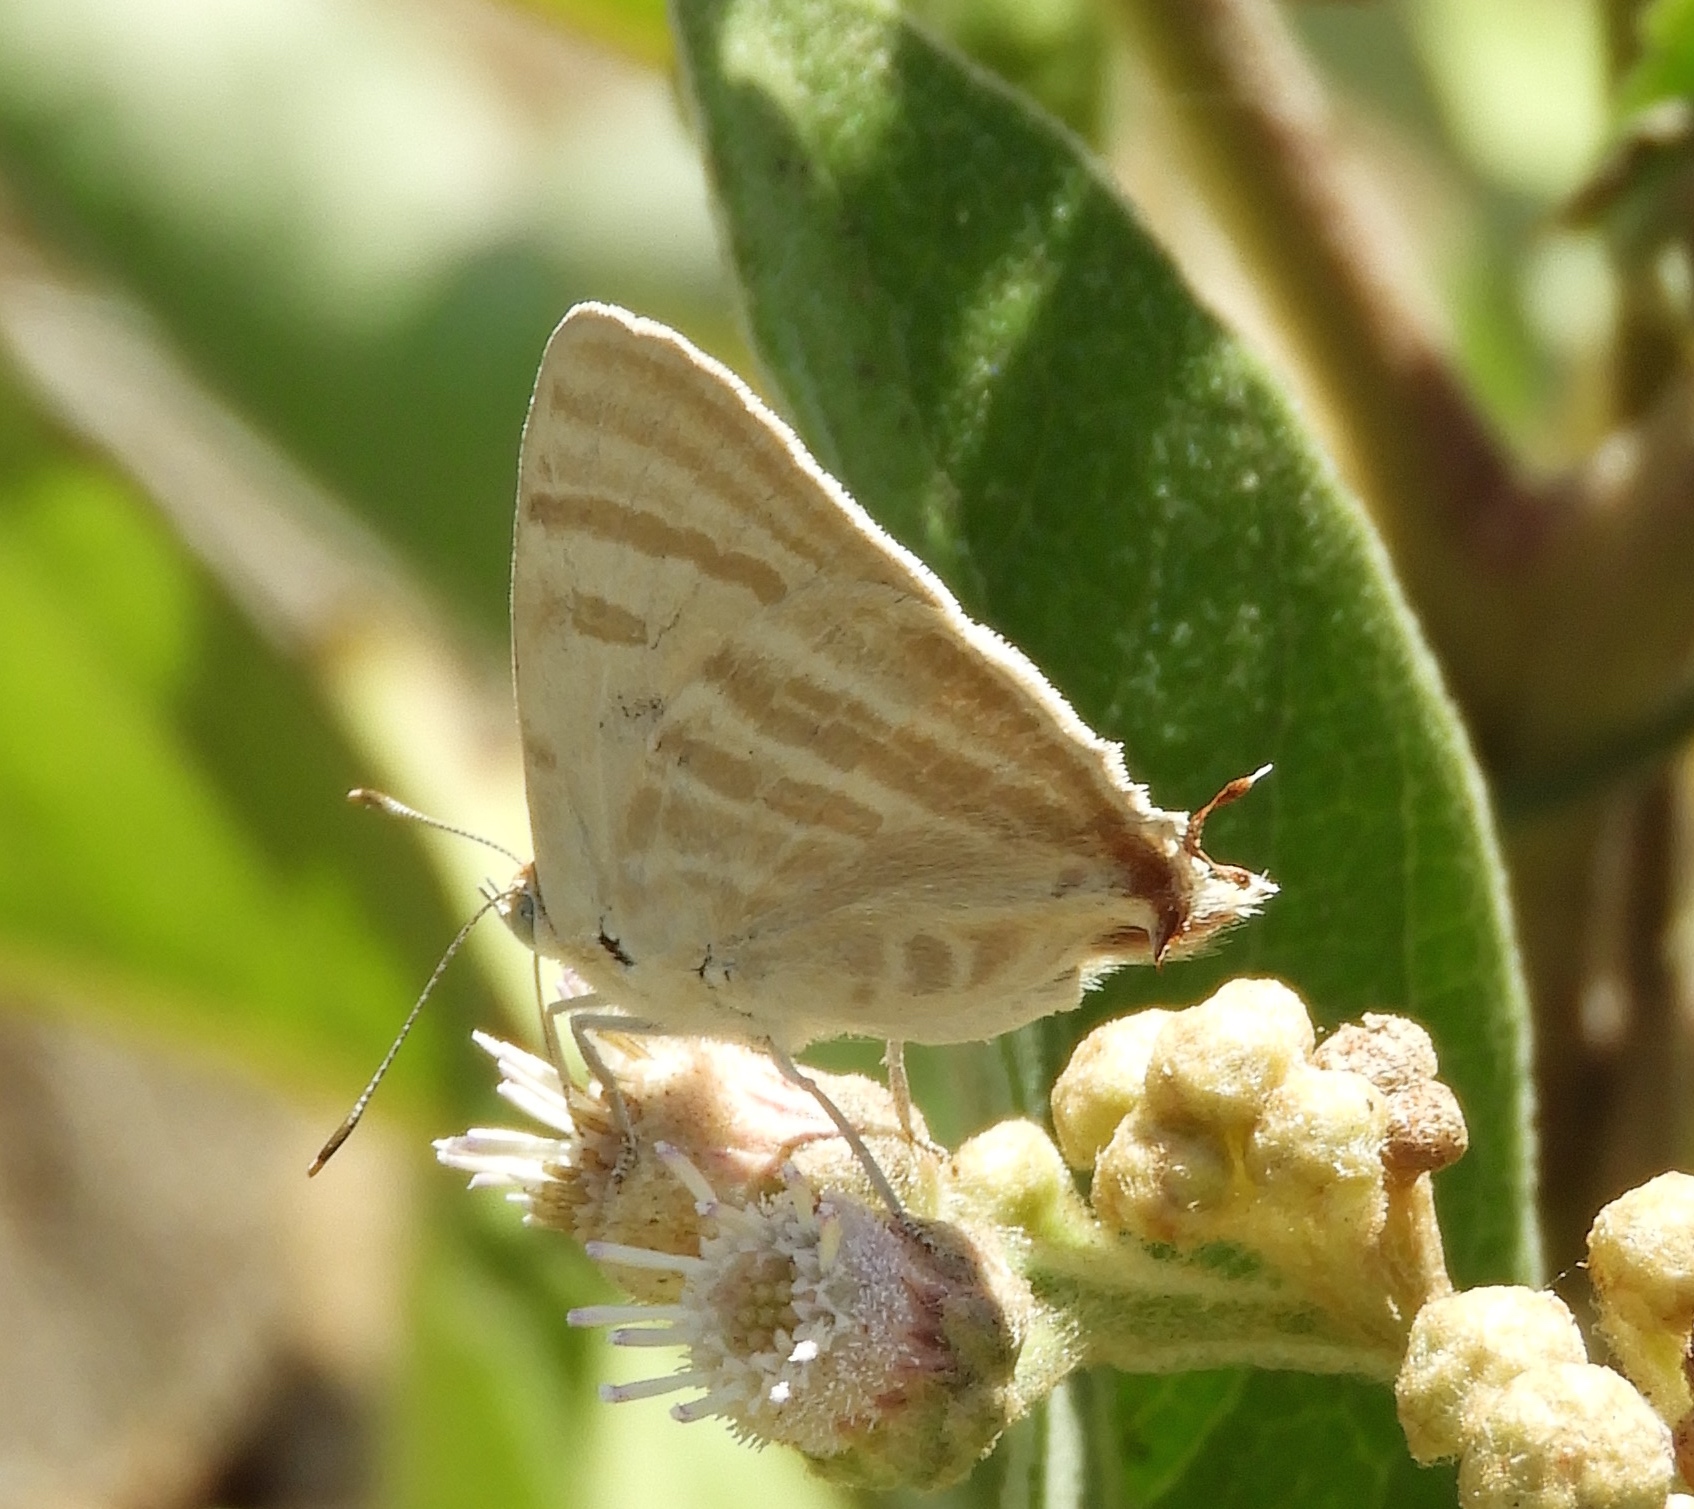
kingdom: Animalia
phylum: Arthropoda
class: Insecta
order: Lepidoptera
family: Lycaenidae
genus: Dolymorpha
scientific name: Dolymorpha jada
